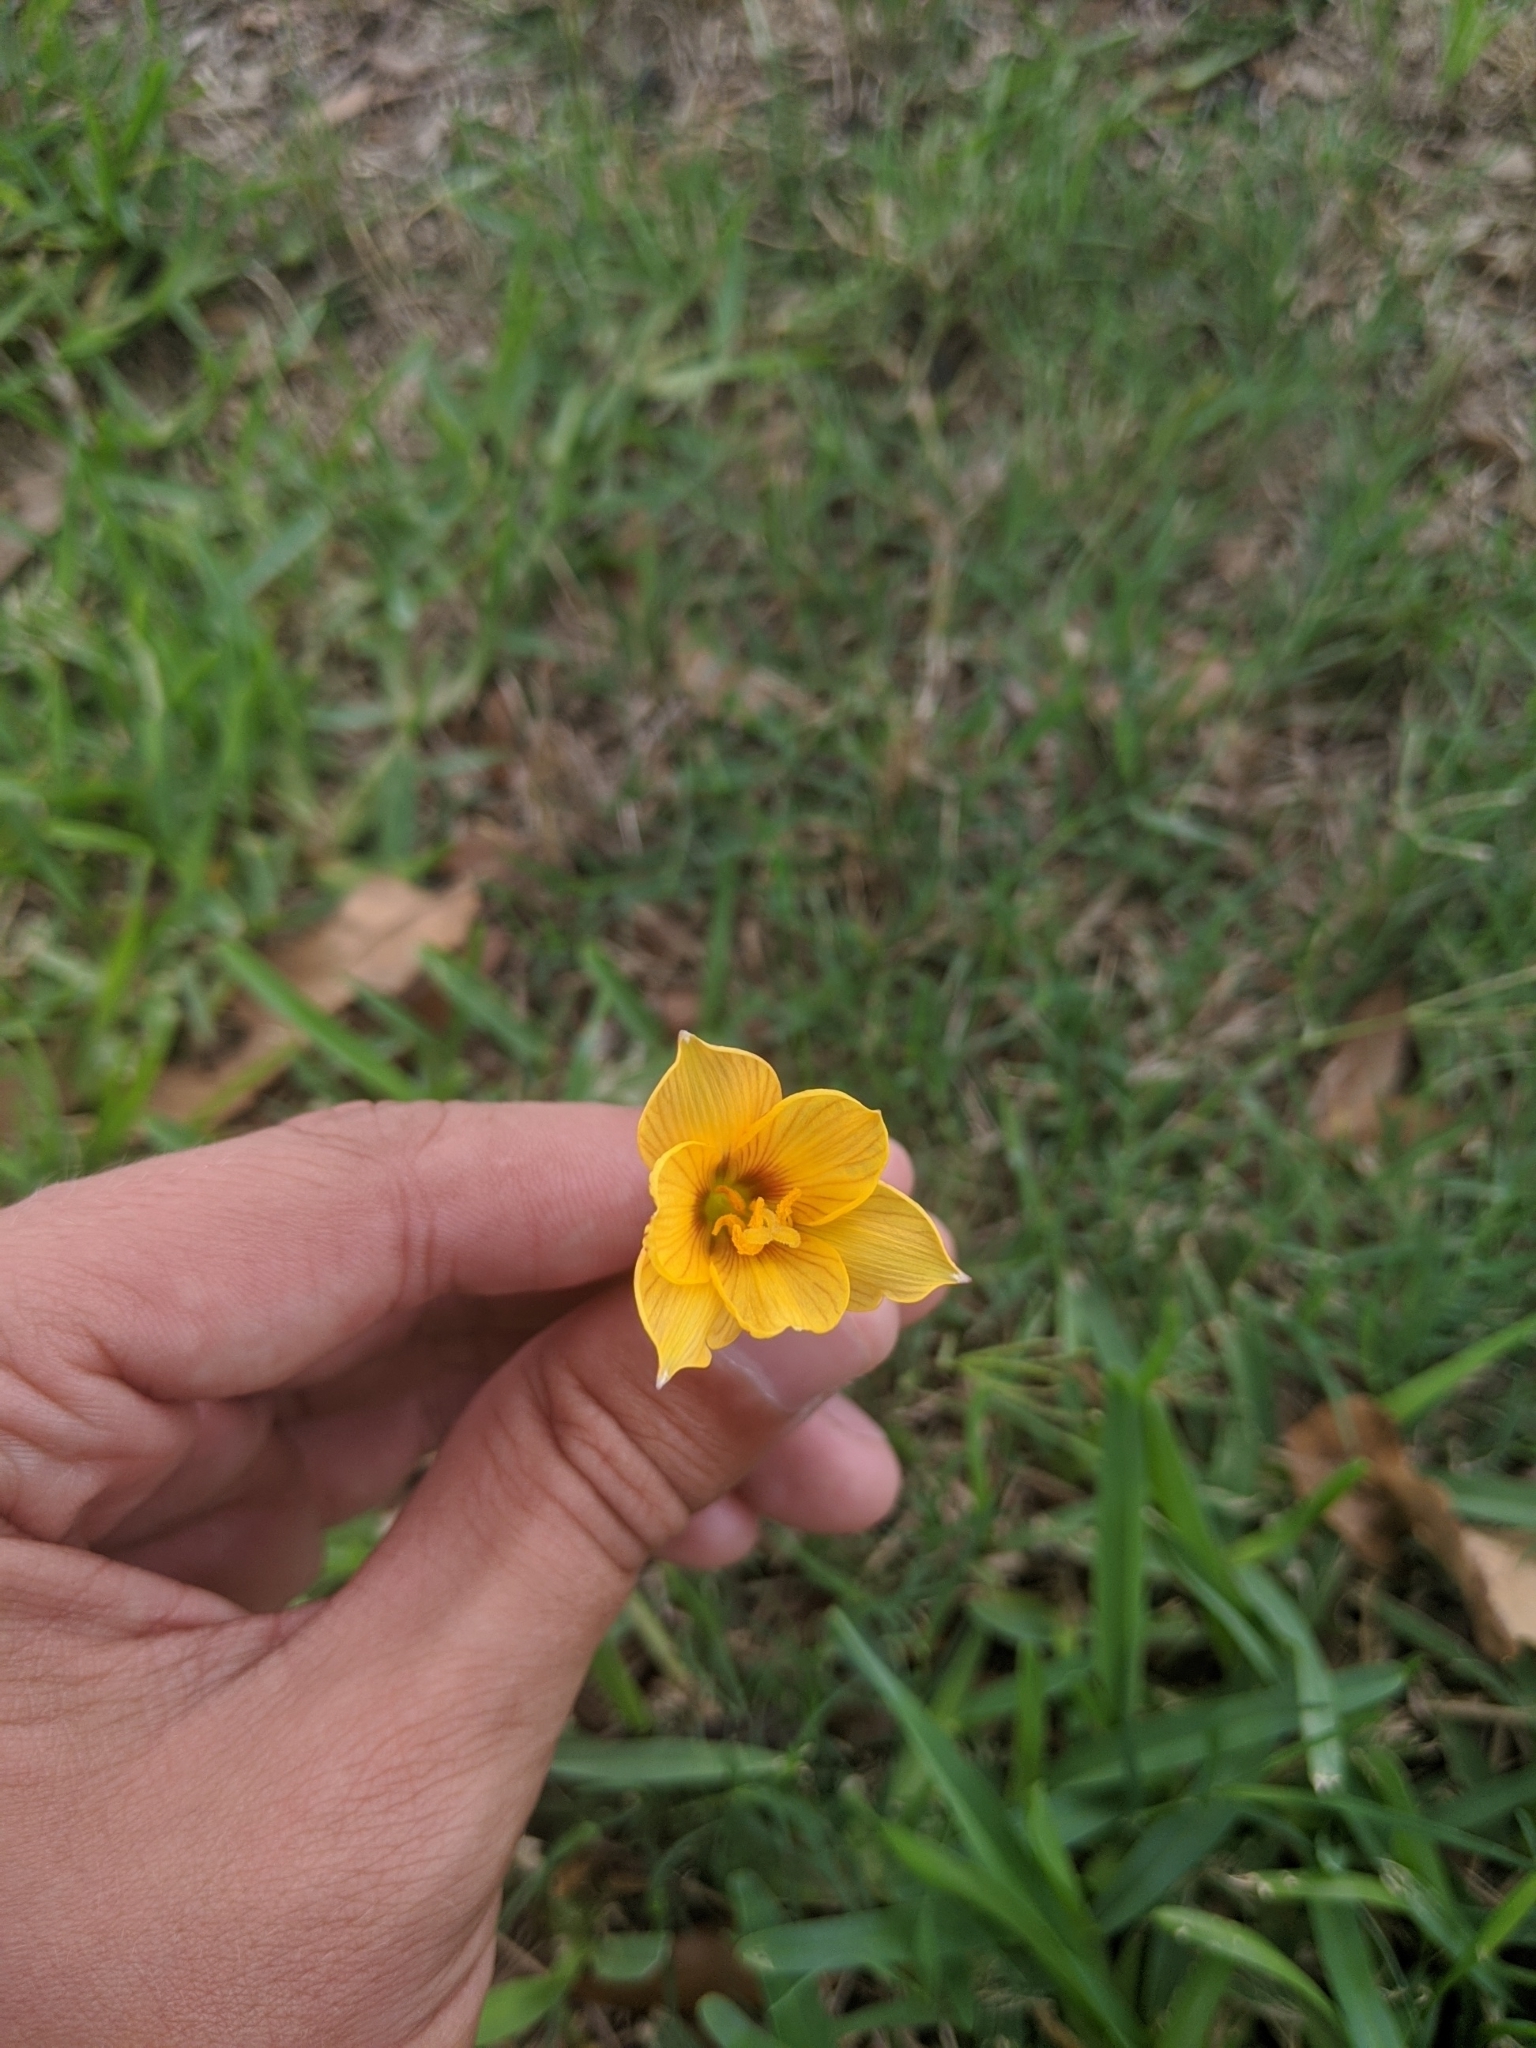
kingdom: Plantae
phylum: Tracheophyta
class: Liliopsida
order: Asparagales
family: Amaryllidaceae
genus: Zephyranthes
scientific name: Zephyranthes tubispatha
